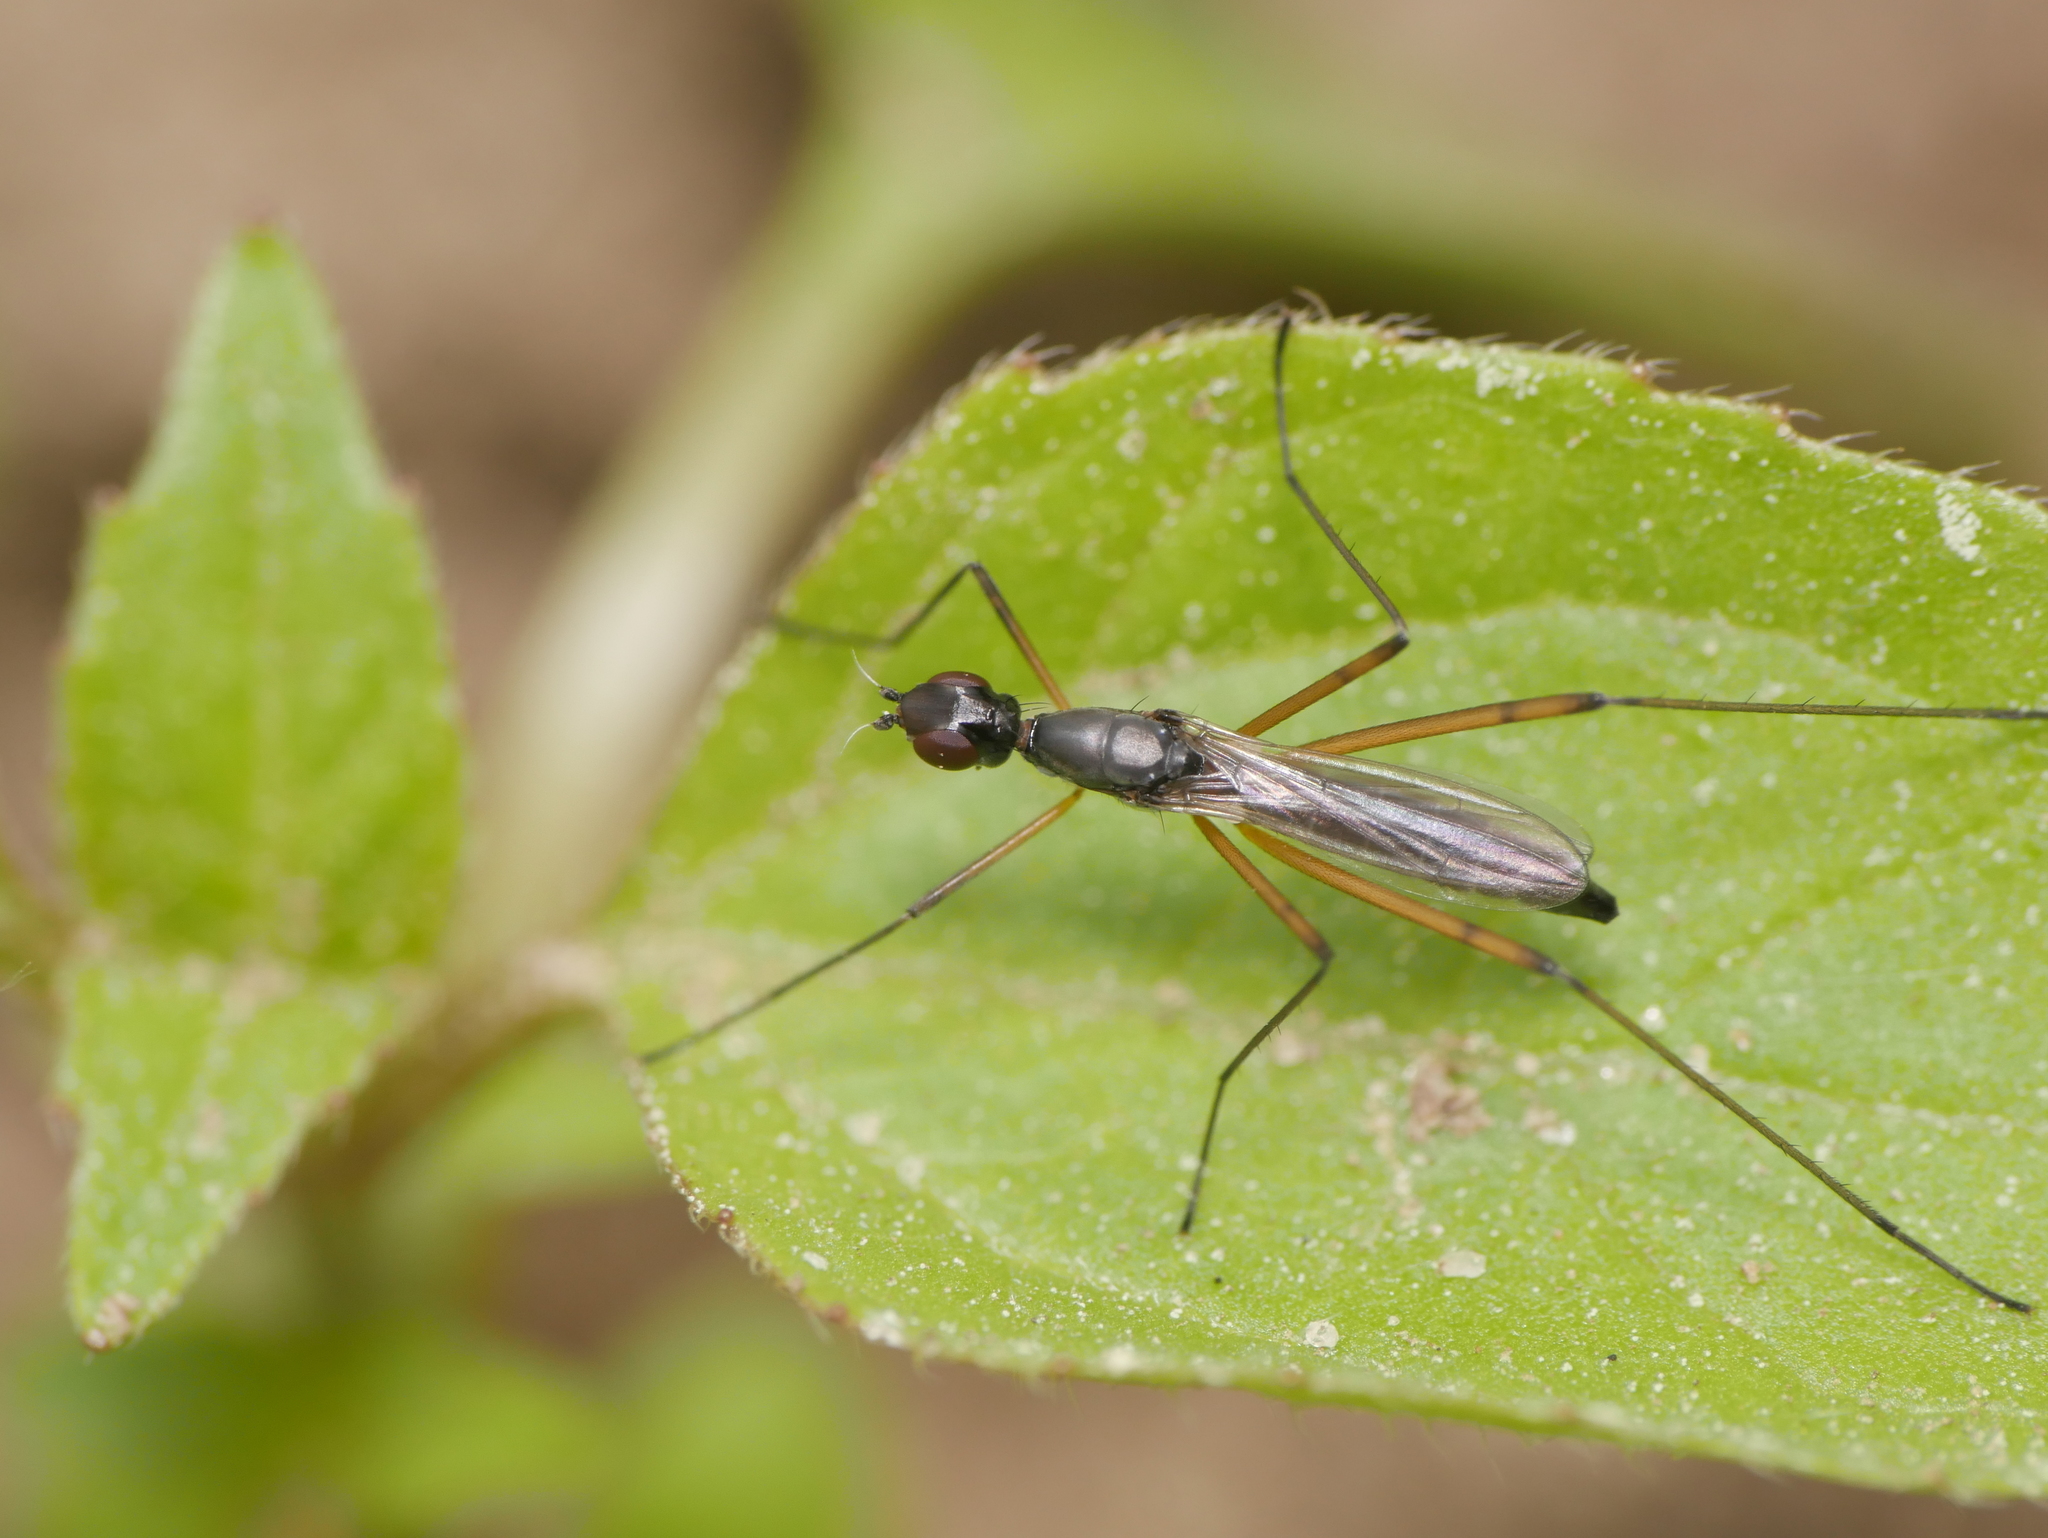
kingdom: Animalia
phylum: Arthropoda
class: Insecta
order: Diptera
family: Micropezidae
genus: Micropeza
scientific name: Micropeza corrigiolata
